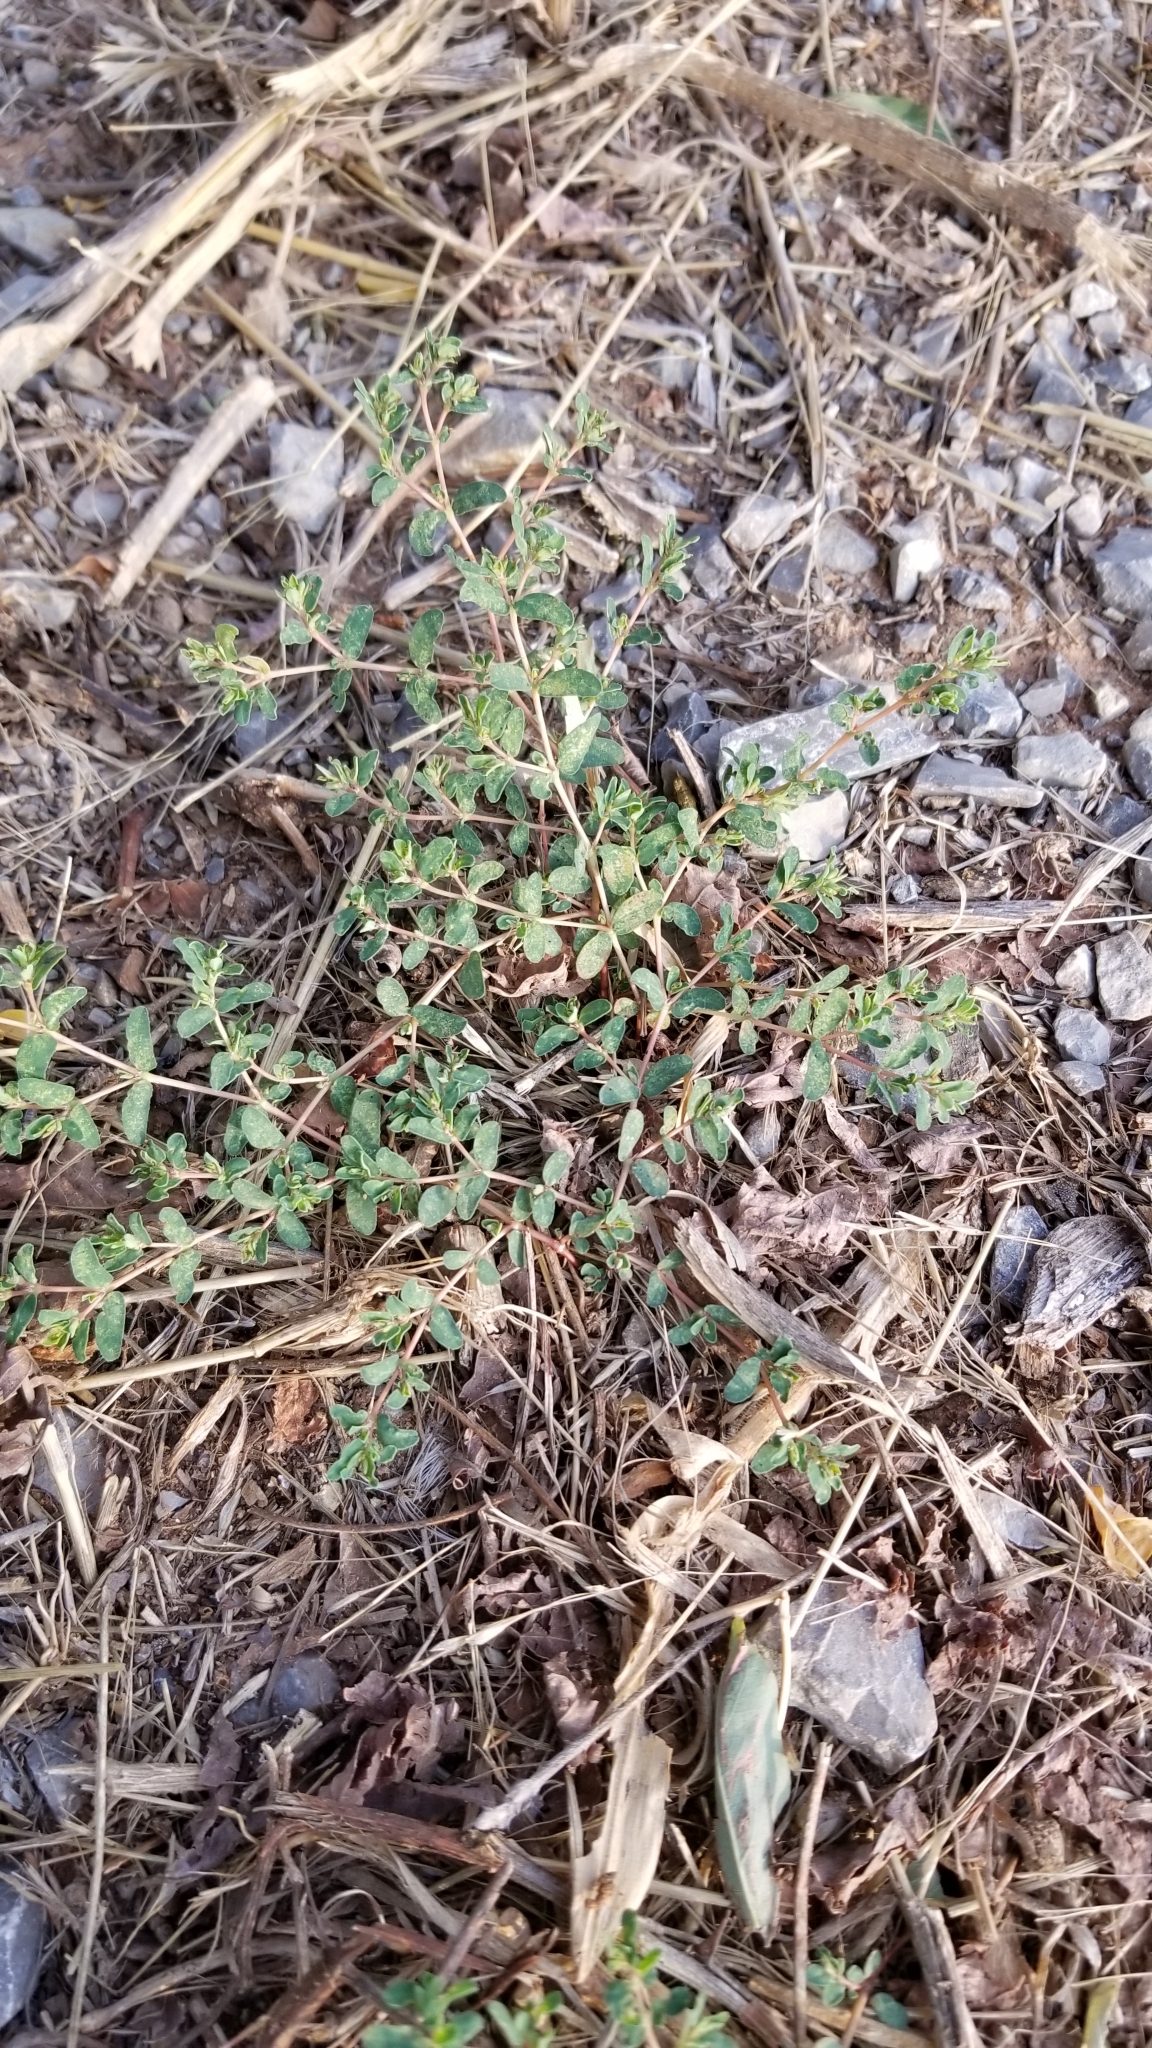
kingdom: Plantae
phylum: Tracheophyta
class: Magnoliopsida
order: Malpighiales
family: Euphorbiaceae
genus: Euphorbia
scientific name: Euphorbia glyptosperma
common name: Corrugate-seeded spurge
